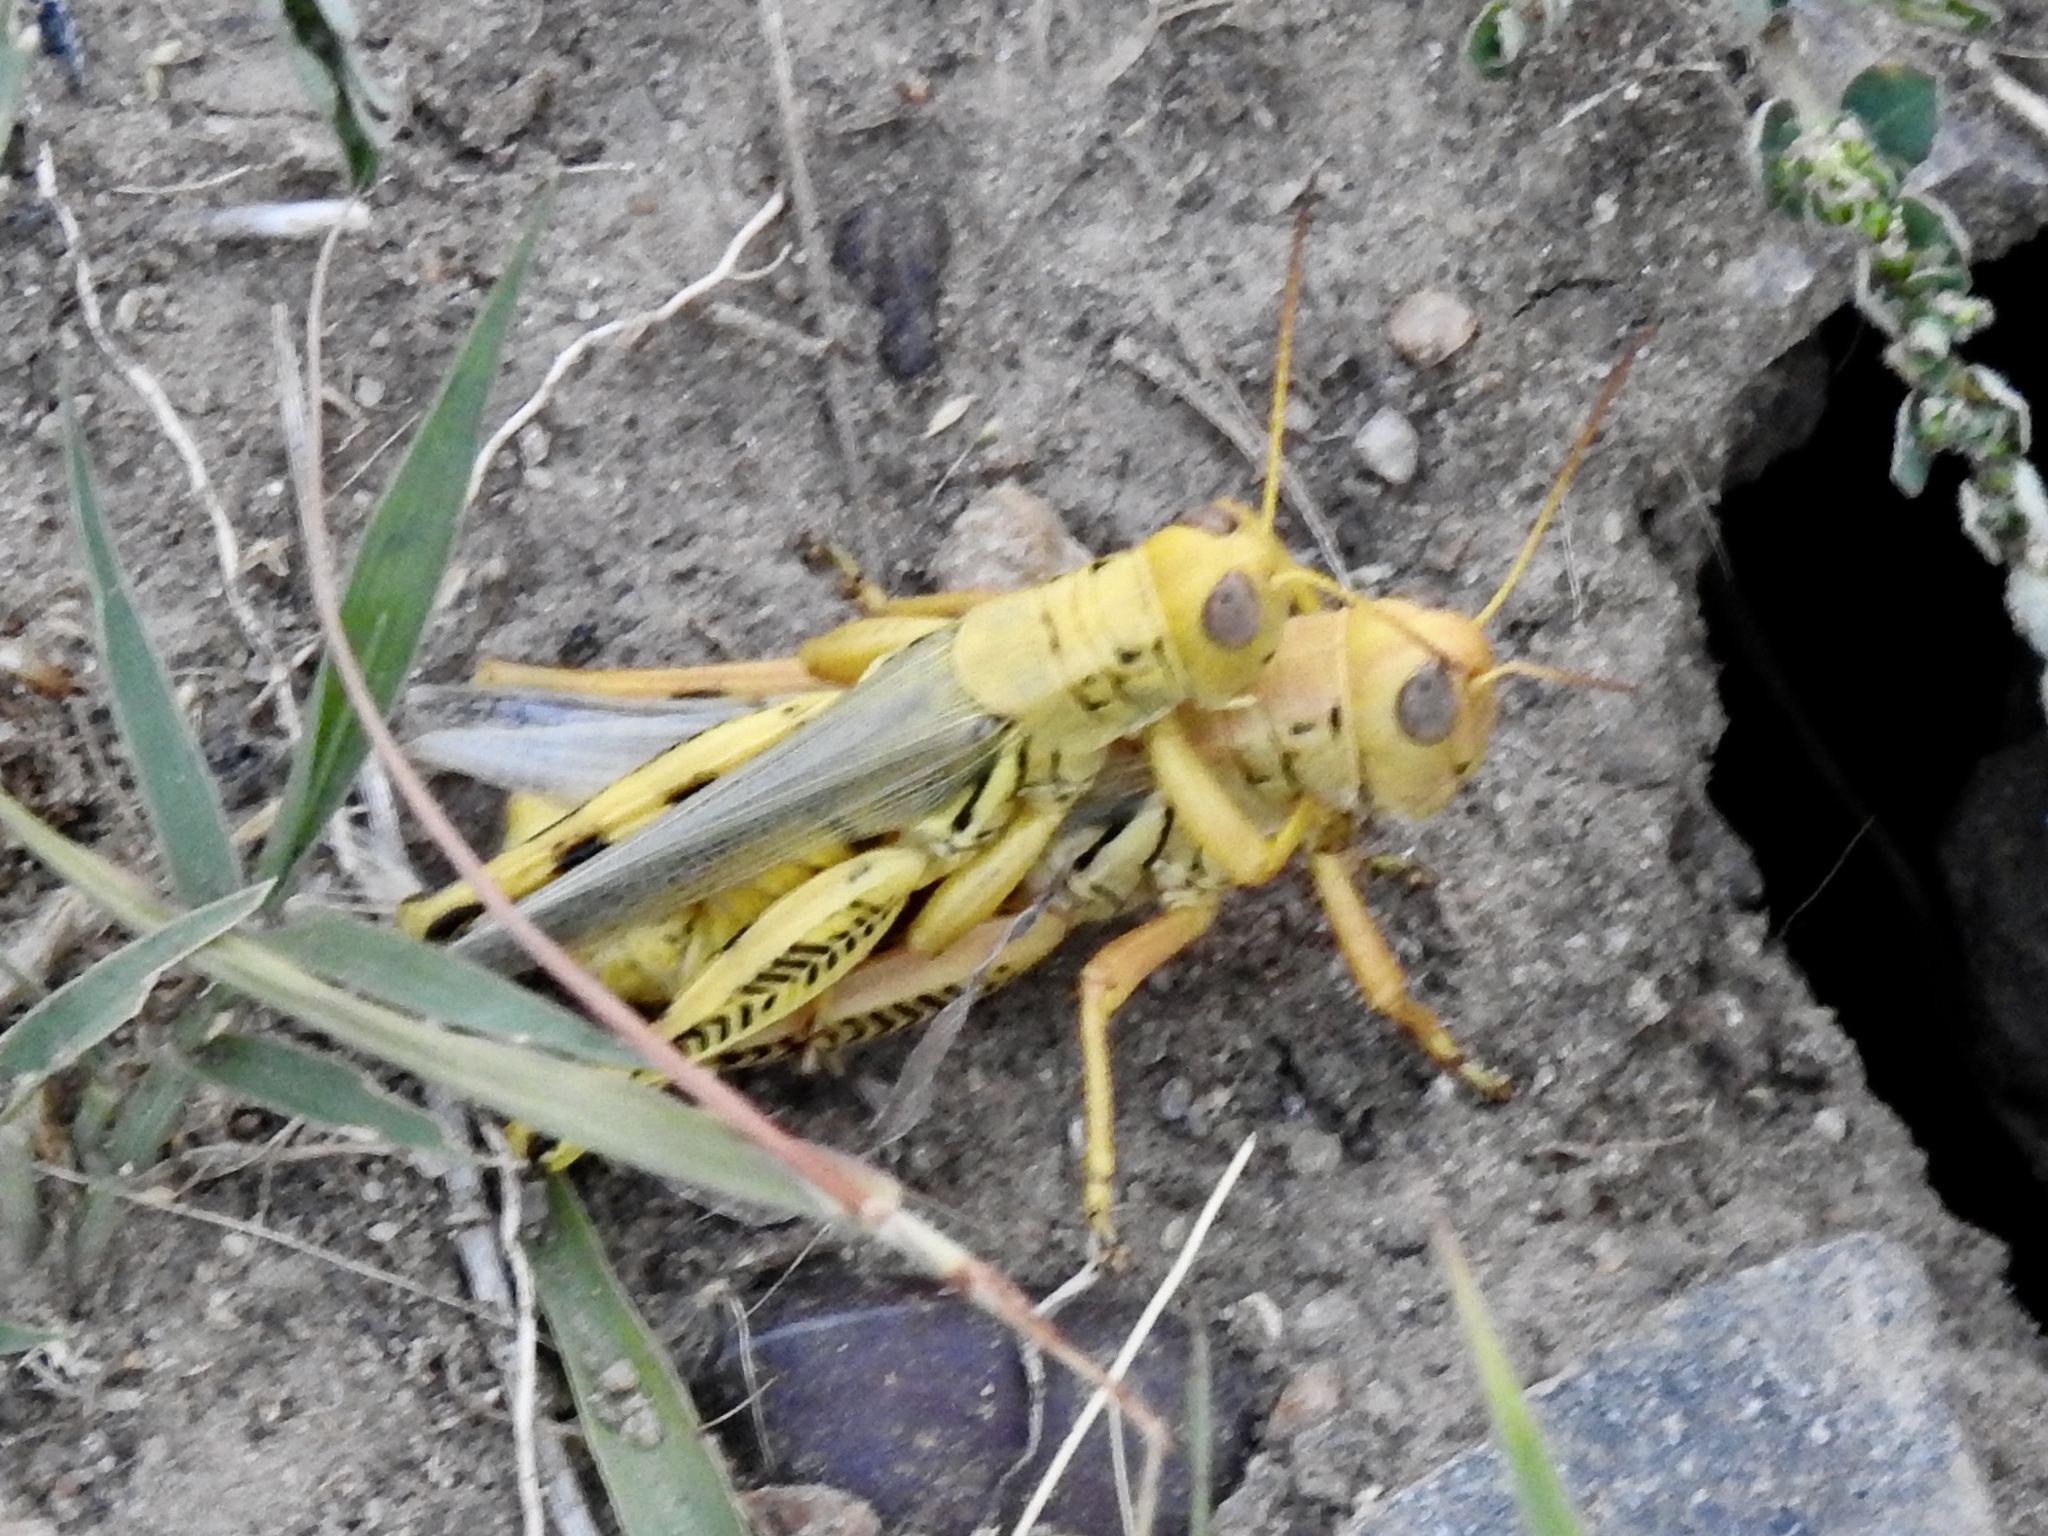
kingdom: Animalia
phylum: Arthropoda
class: Insecta
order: Orthoptera
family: Acrididae
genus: Melanoplus
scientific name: Melanoplus differentialis
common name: Differential grasshopper
